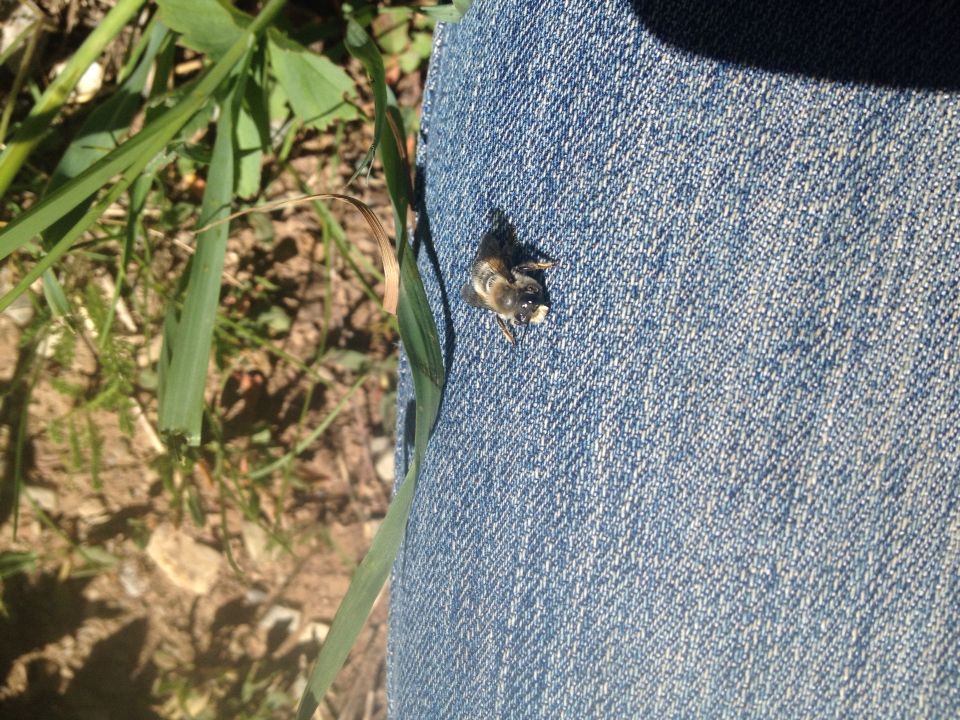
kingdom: Animalia
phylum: Arthropoda
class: Insecta
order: Hymenoptera
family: Megachilidae
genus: Megachile
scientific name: Megachile
